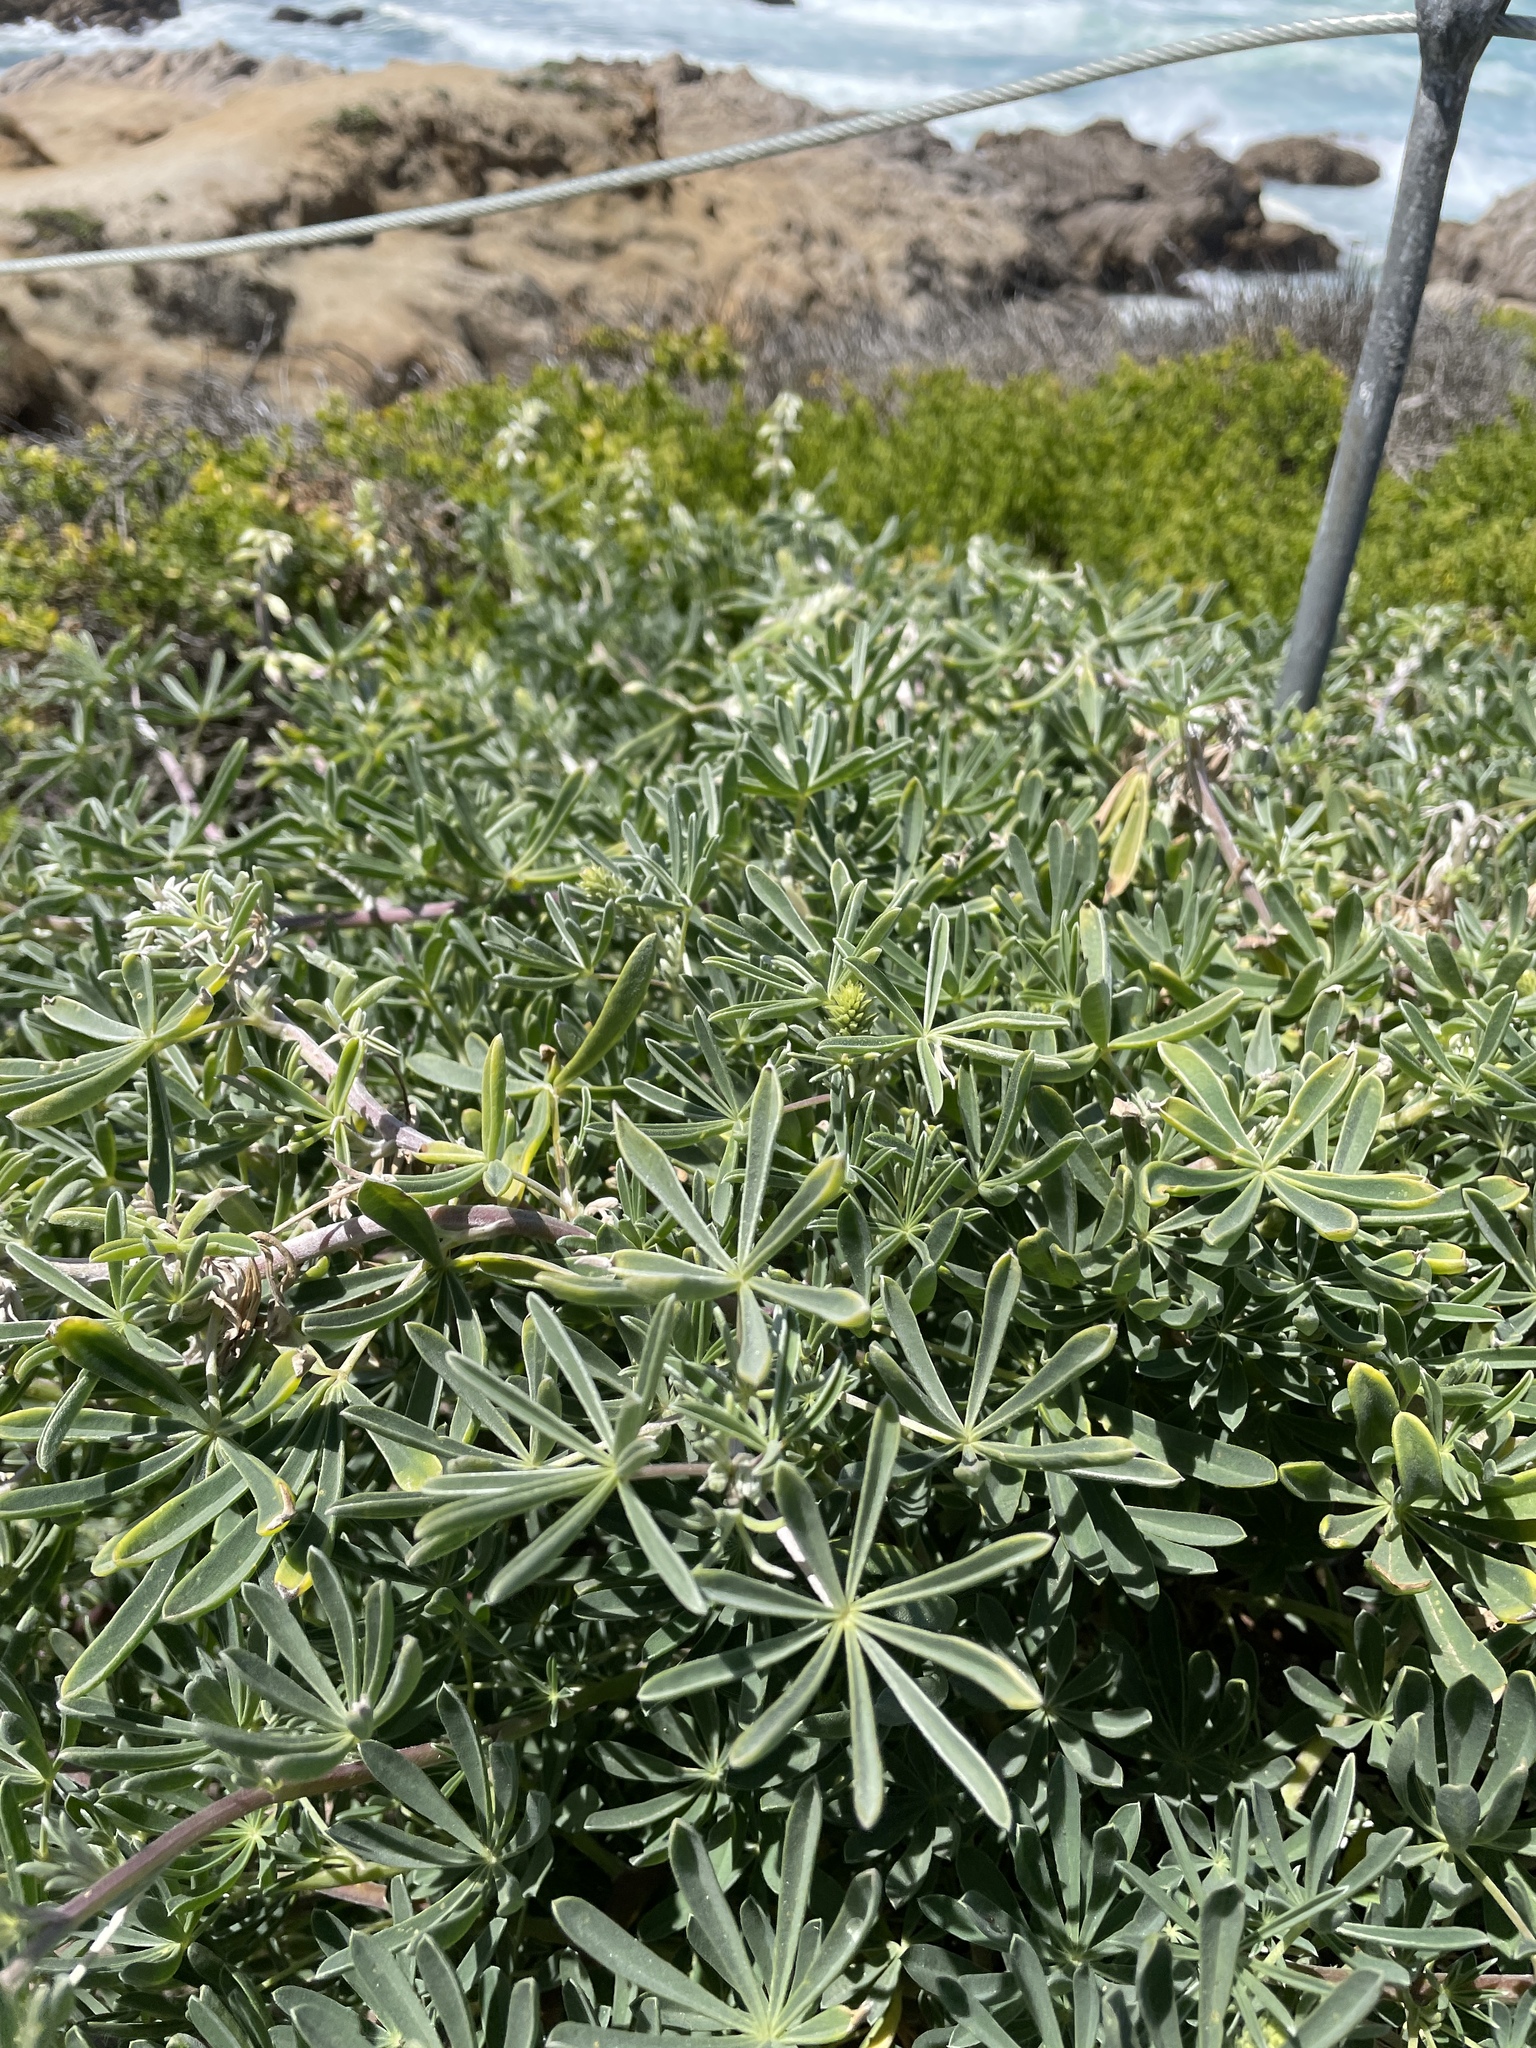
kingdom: Plantae
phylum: Tracheophyta
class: Magnoliopsida
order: Fabales
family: Fabaceae
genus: Lupinus
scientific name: Lupinus arboreus
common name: Yellow bush lupine
